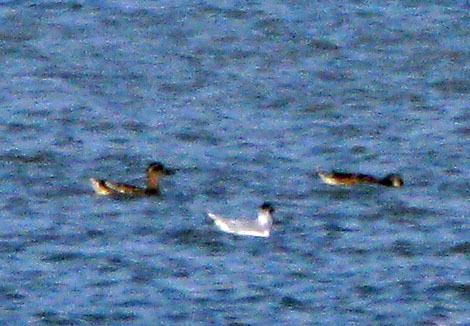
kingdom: Animalia
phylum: Chordata
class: Aves
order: Anseriformes
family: Anatidae
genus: Spatula
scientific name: Spatula querquedula
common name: Garganey
